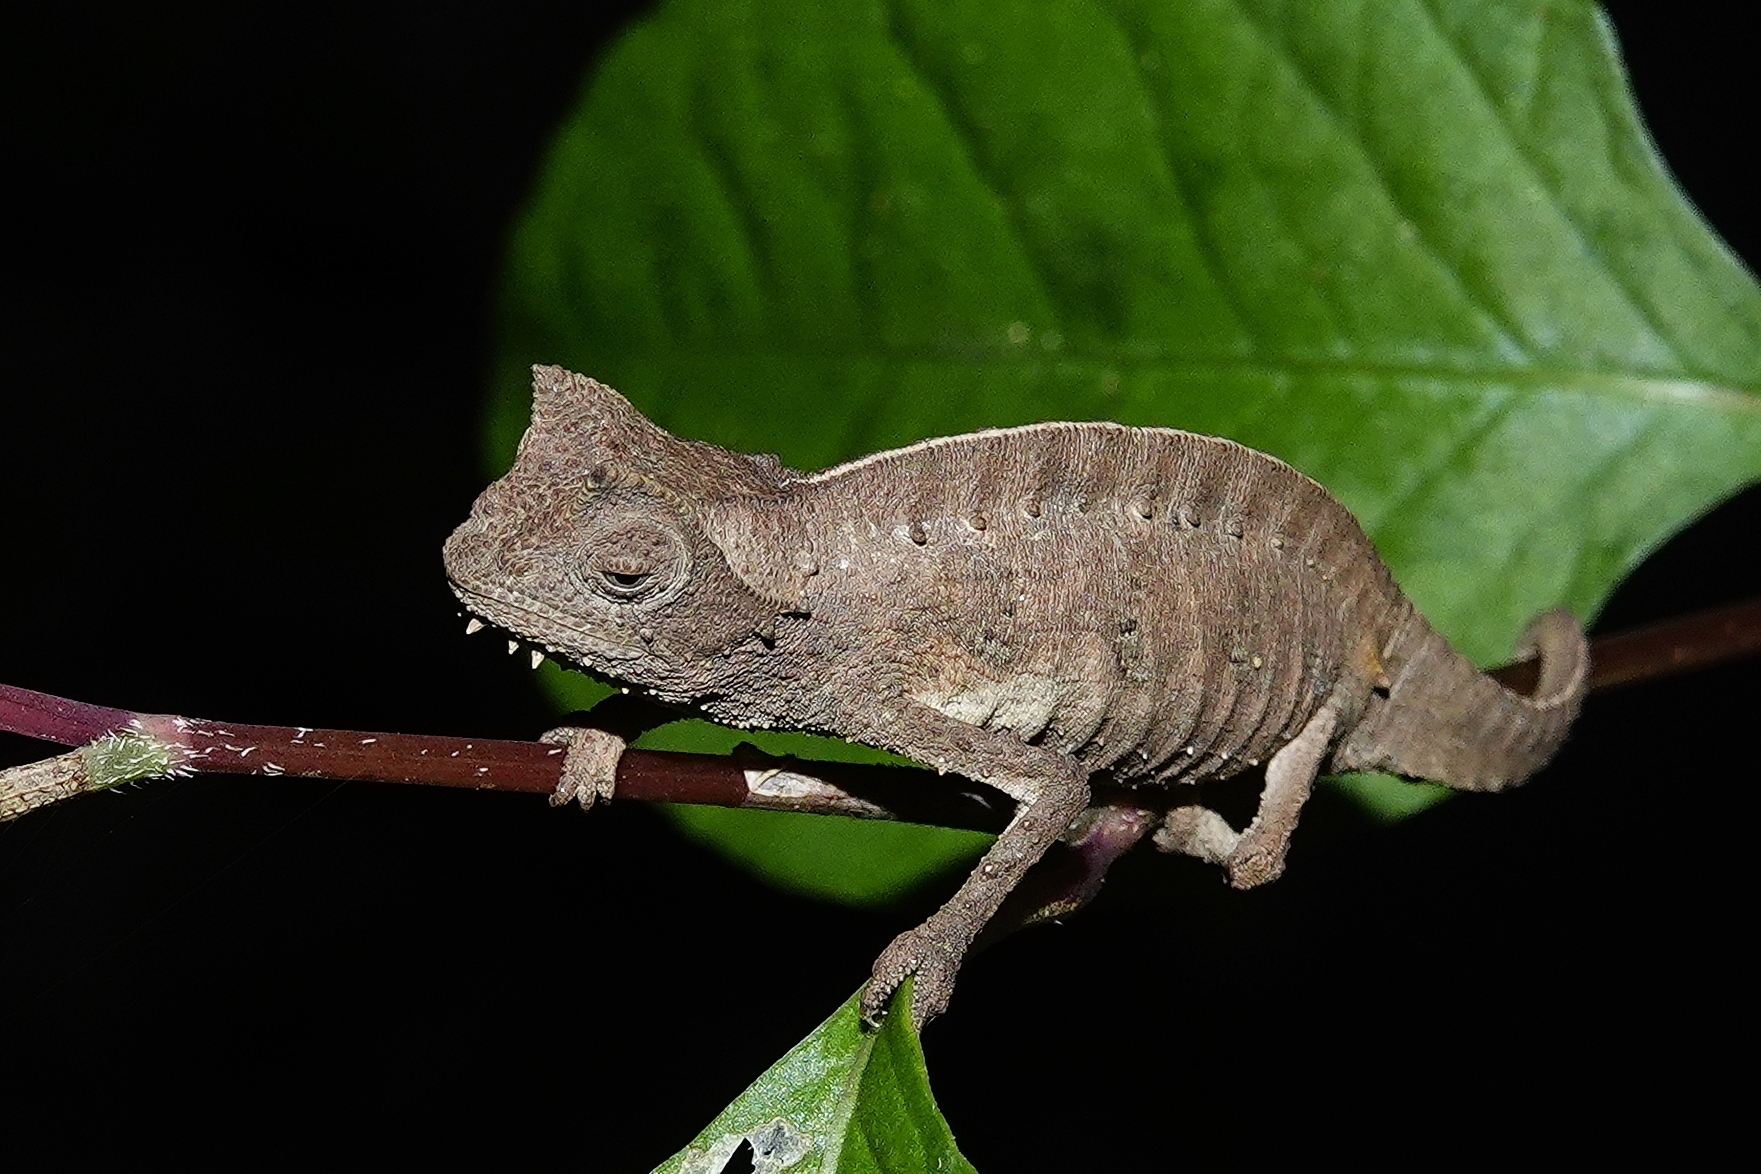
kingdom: Animalia
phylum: Chordata
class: Squamata
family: Chamaeleonidae
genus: Brookesia
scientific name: Brookesia superciliaris
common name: Brown leaf chameleon
